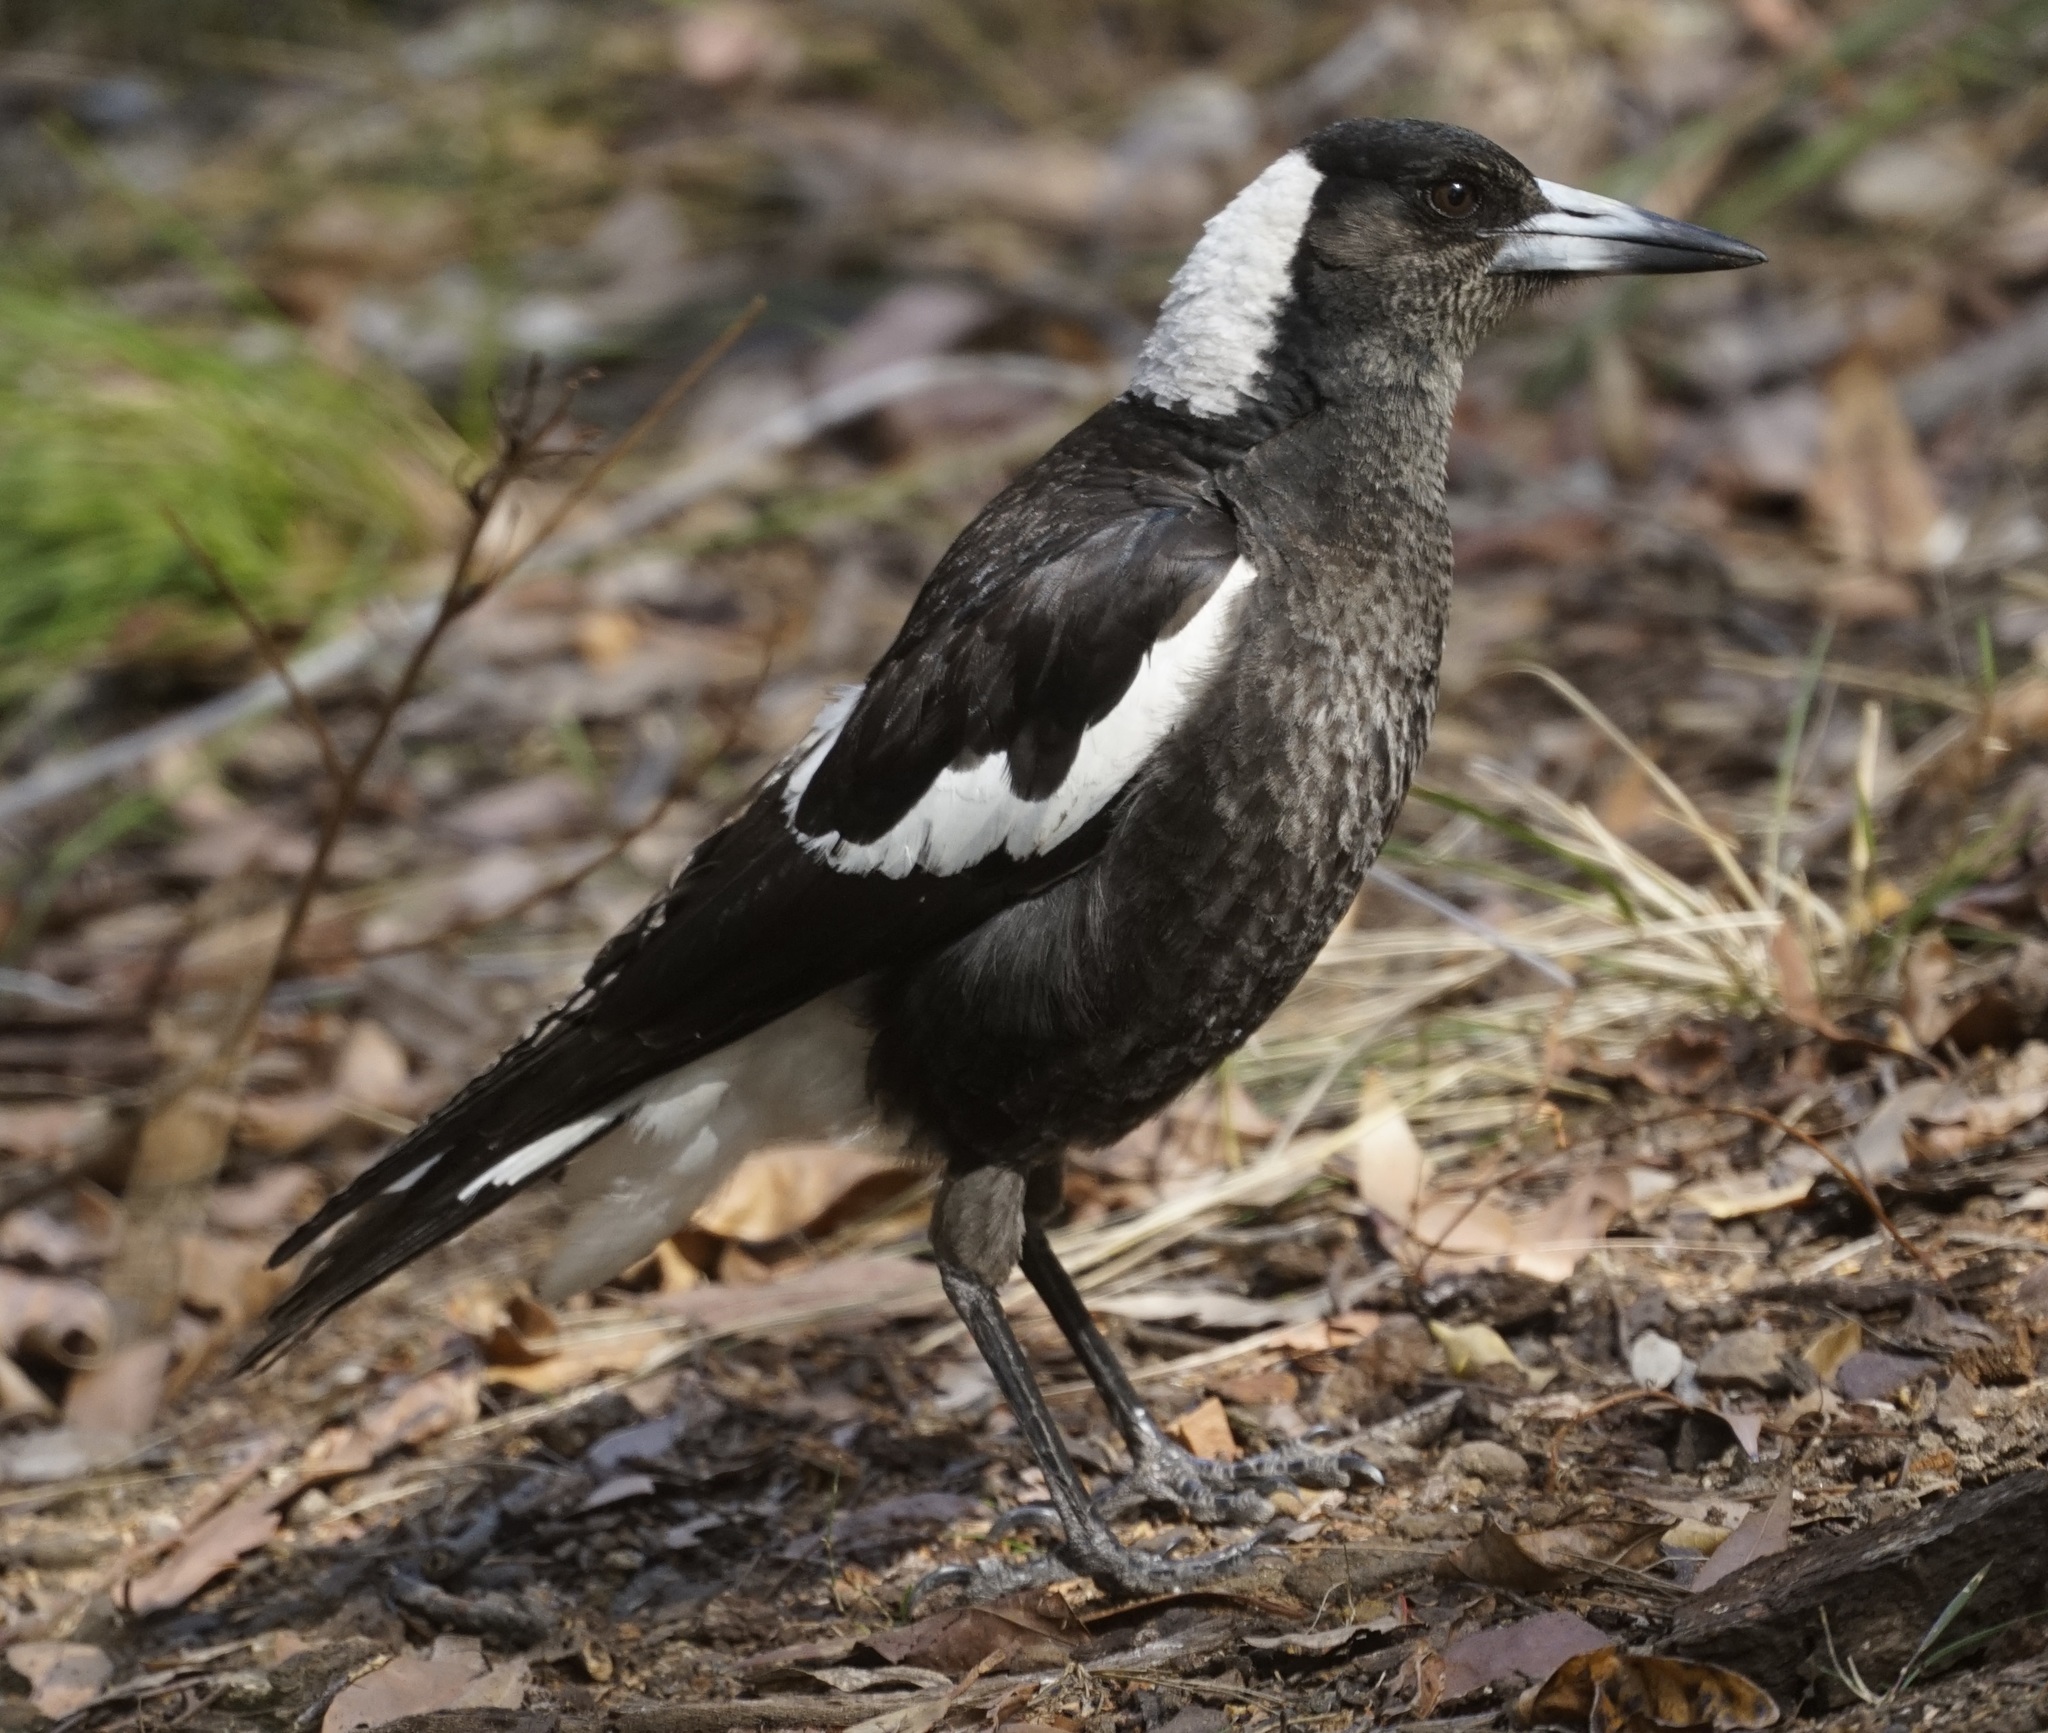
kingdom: Animalia
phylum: Chordata
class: Aves
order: Passeriformes
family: Cracticidae
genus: Gymnorhina
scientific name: Gymnorhina tibicen
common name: Australian magpie
